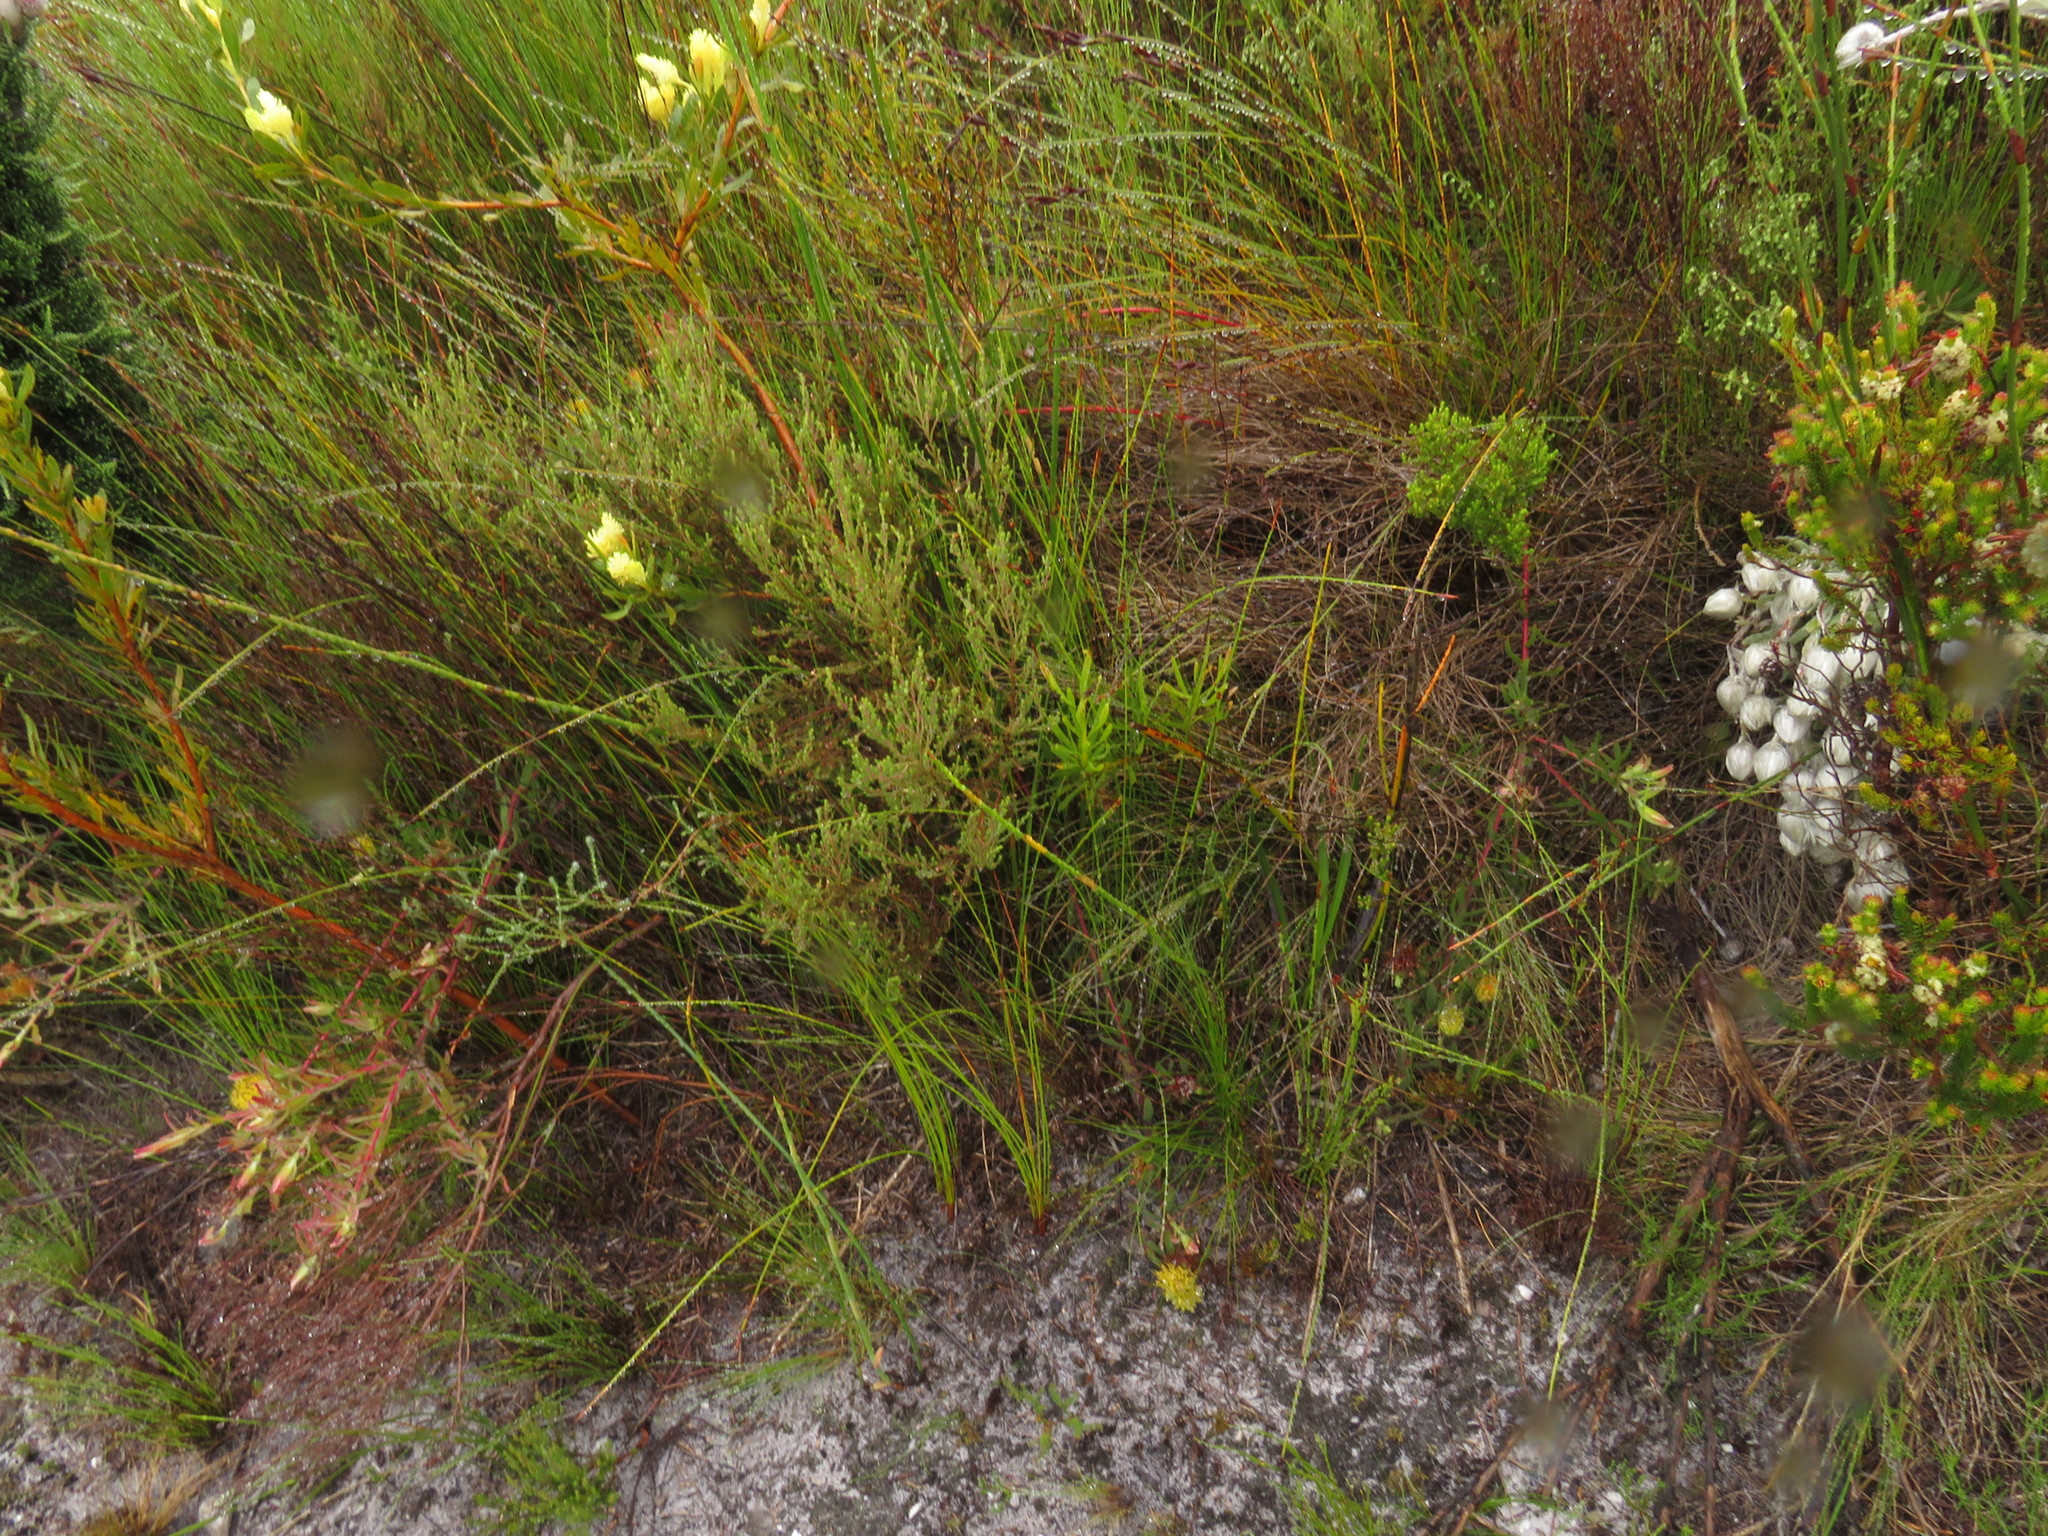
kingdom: Plantae
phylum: Tracheophyta
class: Magnoliopsida
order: Proteales
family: Proteaceae
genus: Leucospermum
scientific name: Leucospermum gracile
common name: Hermanus pincushion
